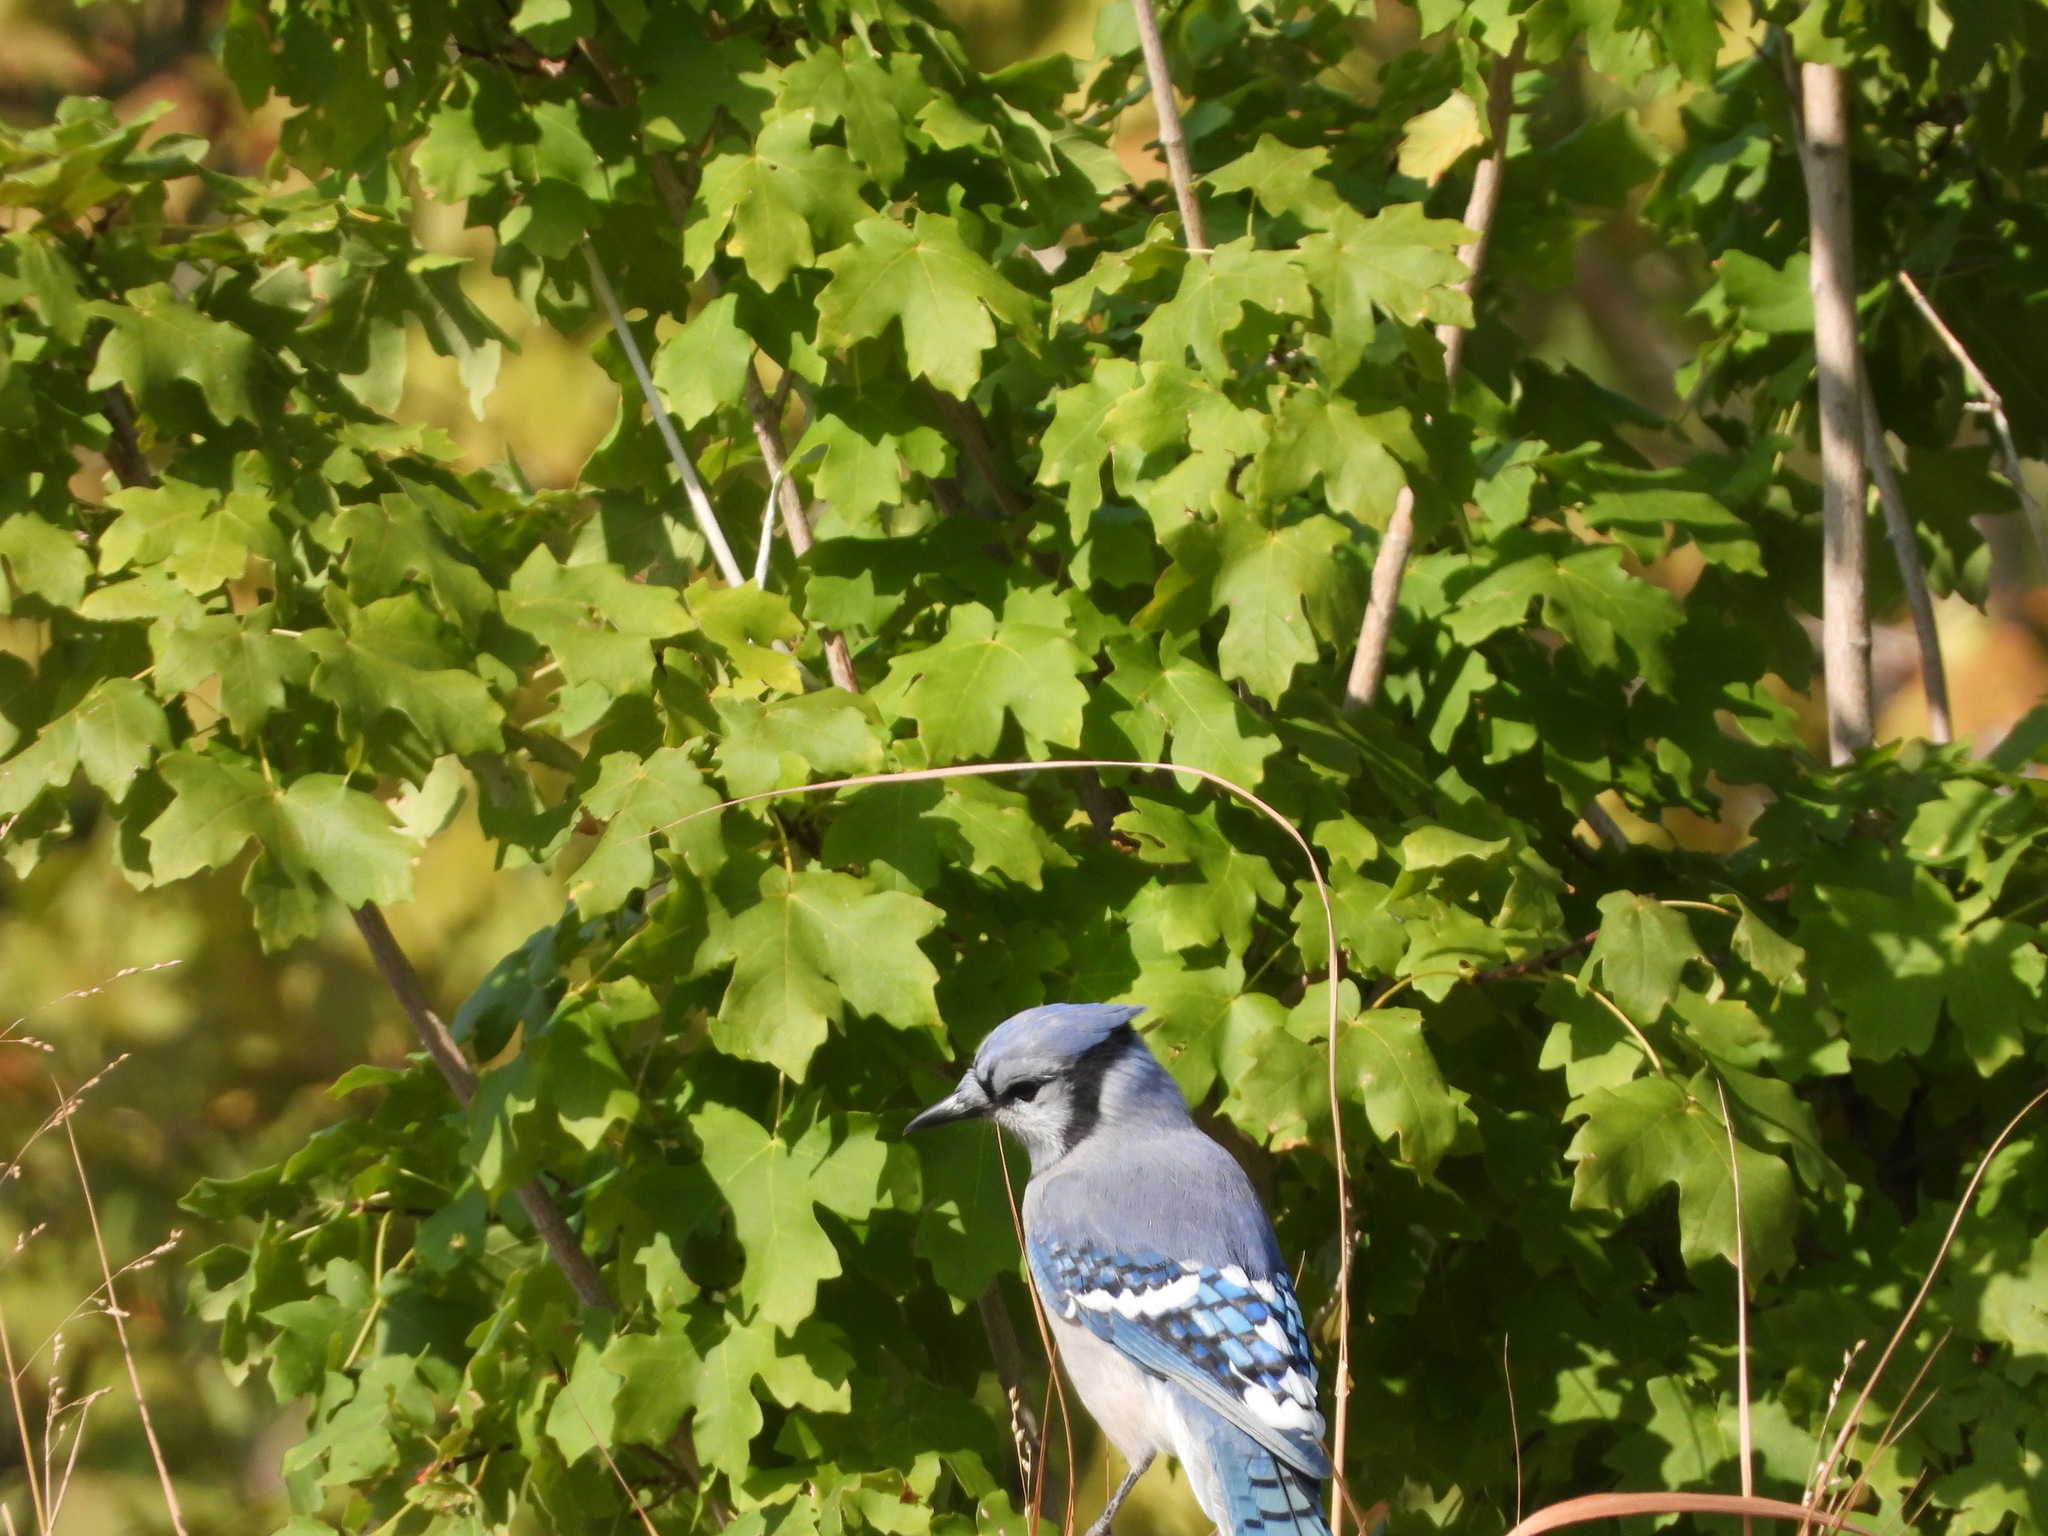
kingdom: Animalia
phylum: Chordata
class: Aves
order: Passeriformes
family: Corvidae
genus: Cyanocitta
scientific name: Cyanocitta cristata
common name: Blue jay
